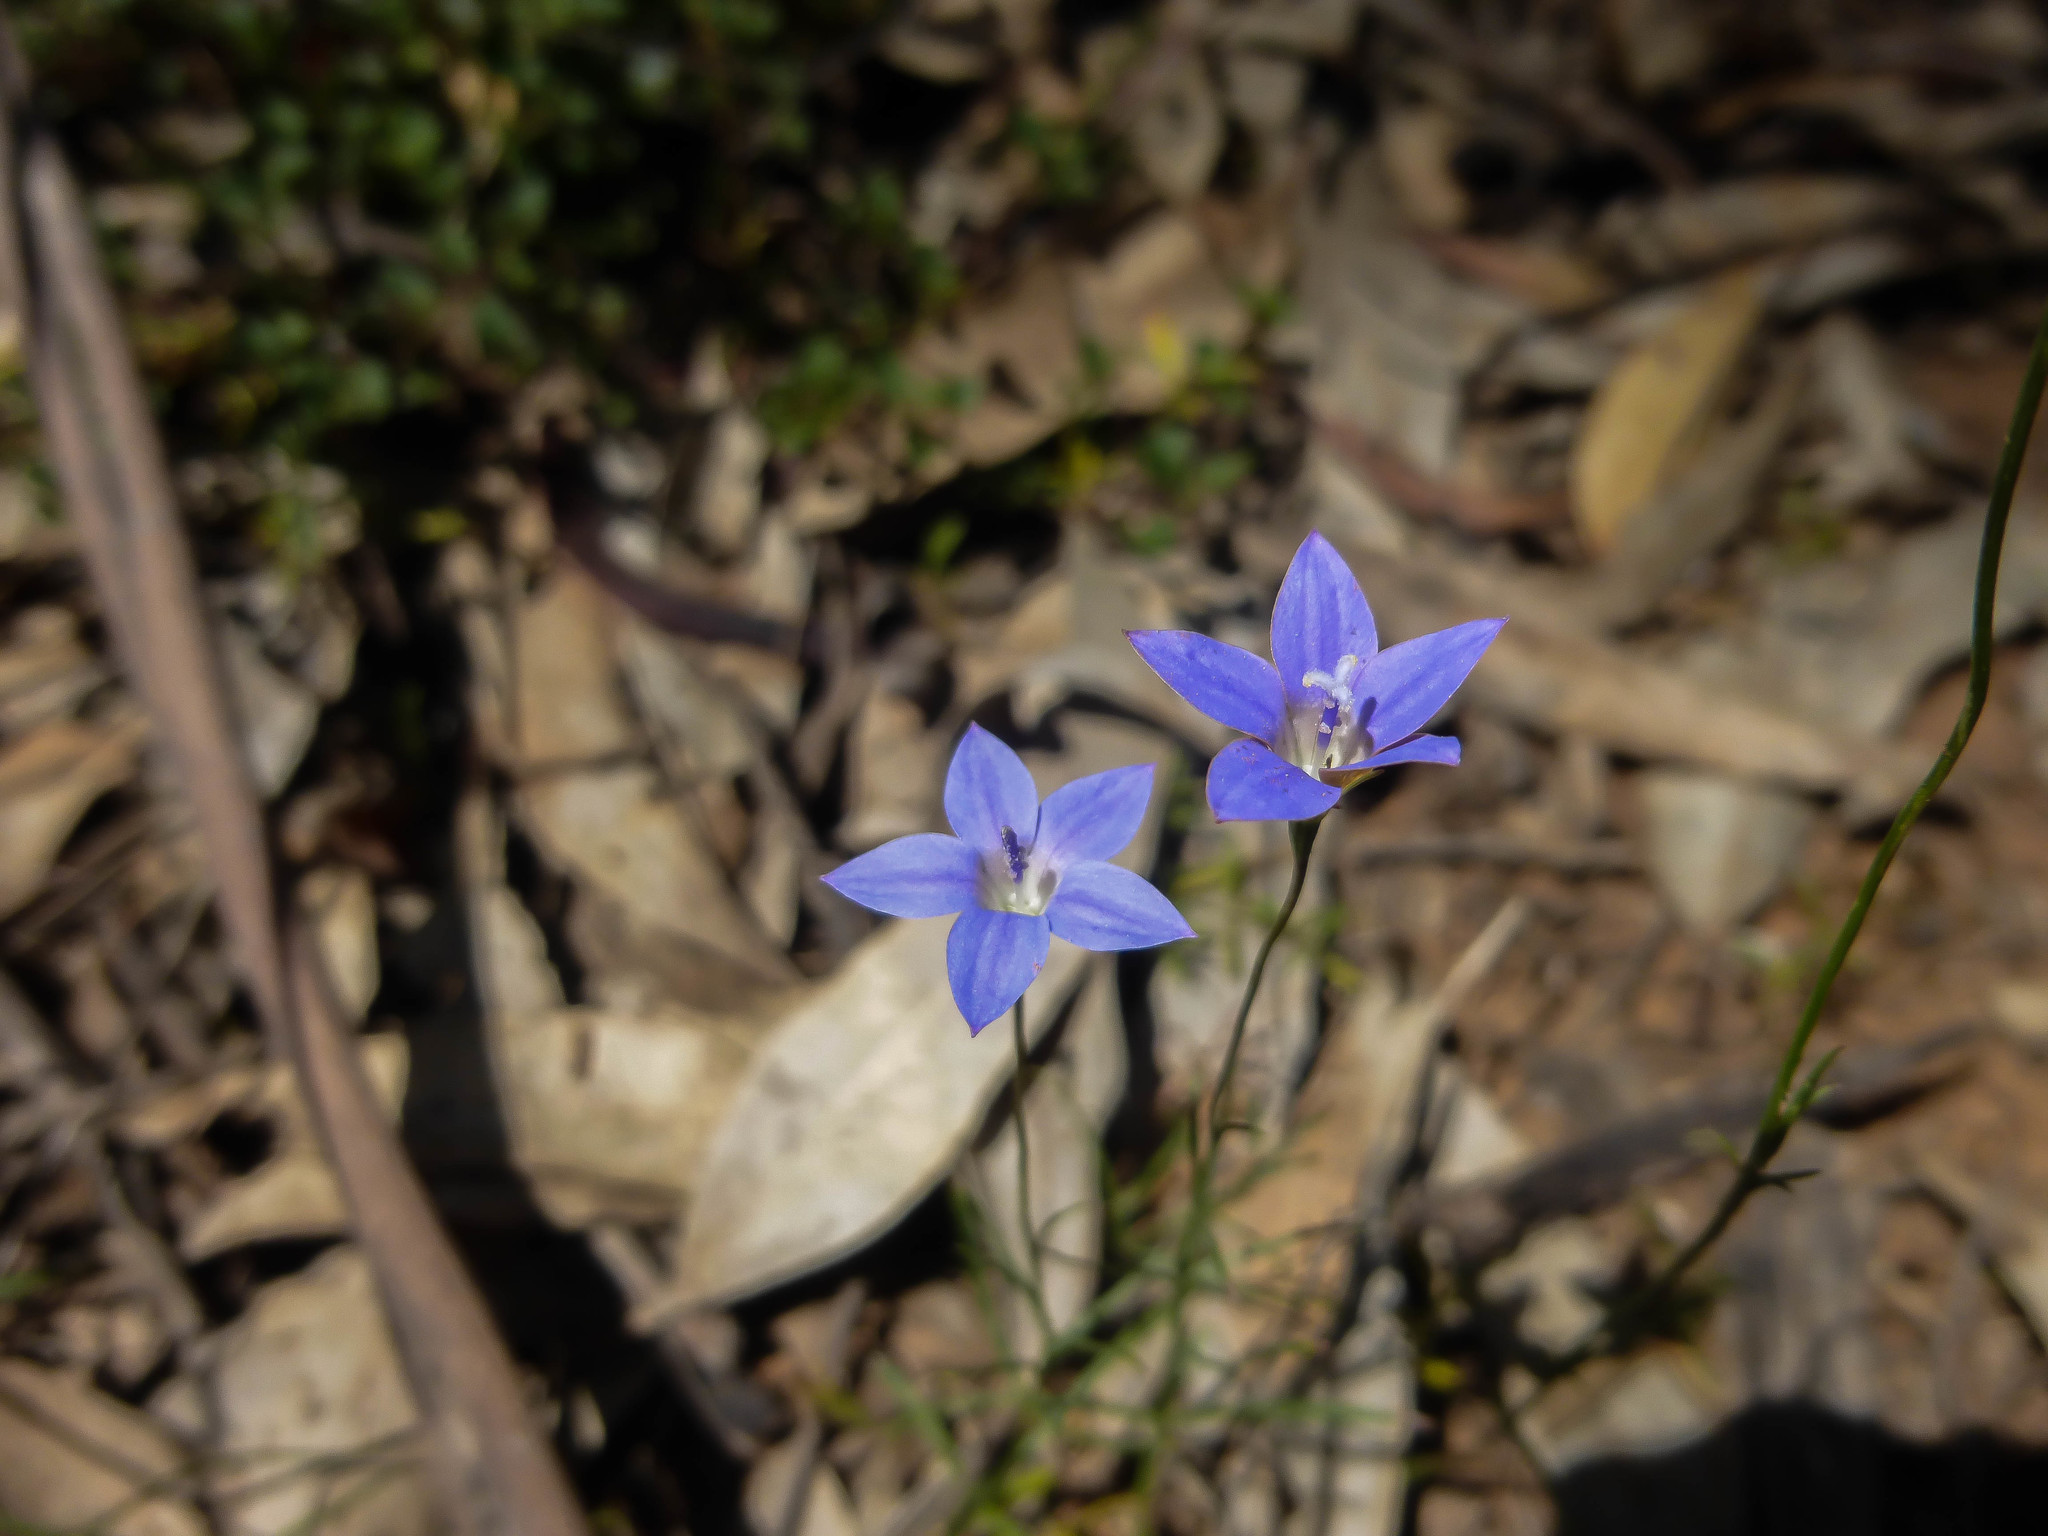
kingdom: Plantae
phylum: Tracheophyta
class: Magnoliopsida
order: Asterales
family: Campanulaceae
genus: Wahlenbergia
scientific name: Wahlenbergia littoralis
